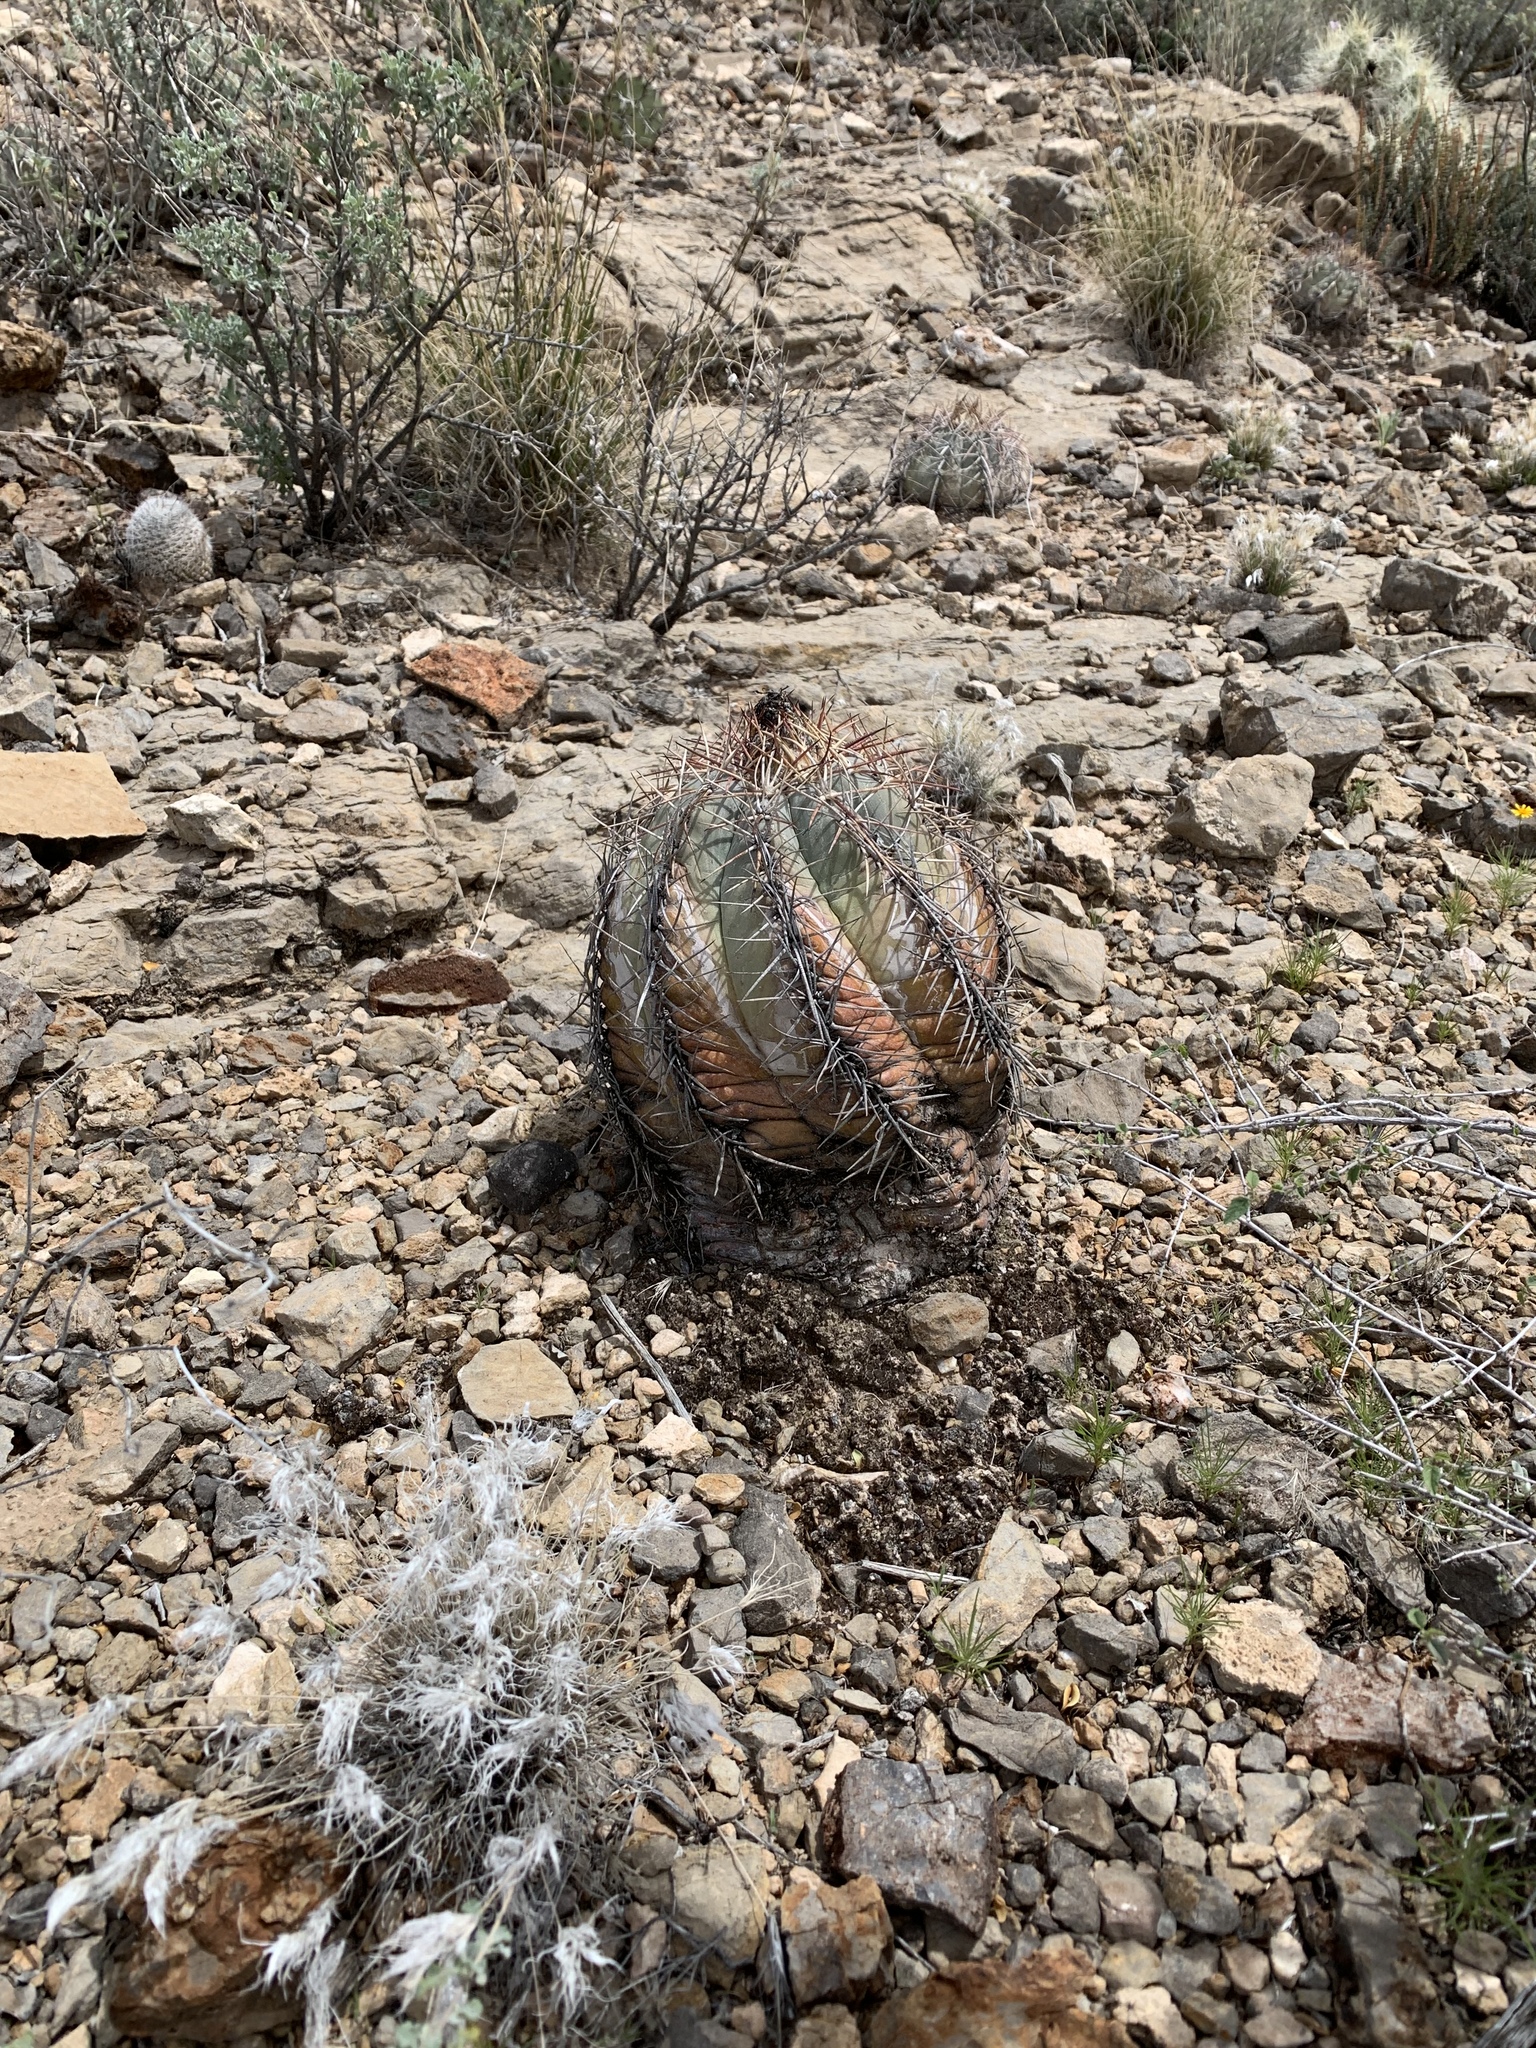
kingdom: Plantae
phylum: Tracheophyta
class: Magnoliopsida
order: Caryophyllales
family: Cactaceae
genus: Echinocactus
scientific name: Echinocactus horizonthalonius
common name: Devilshead
